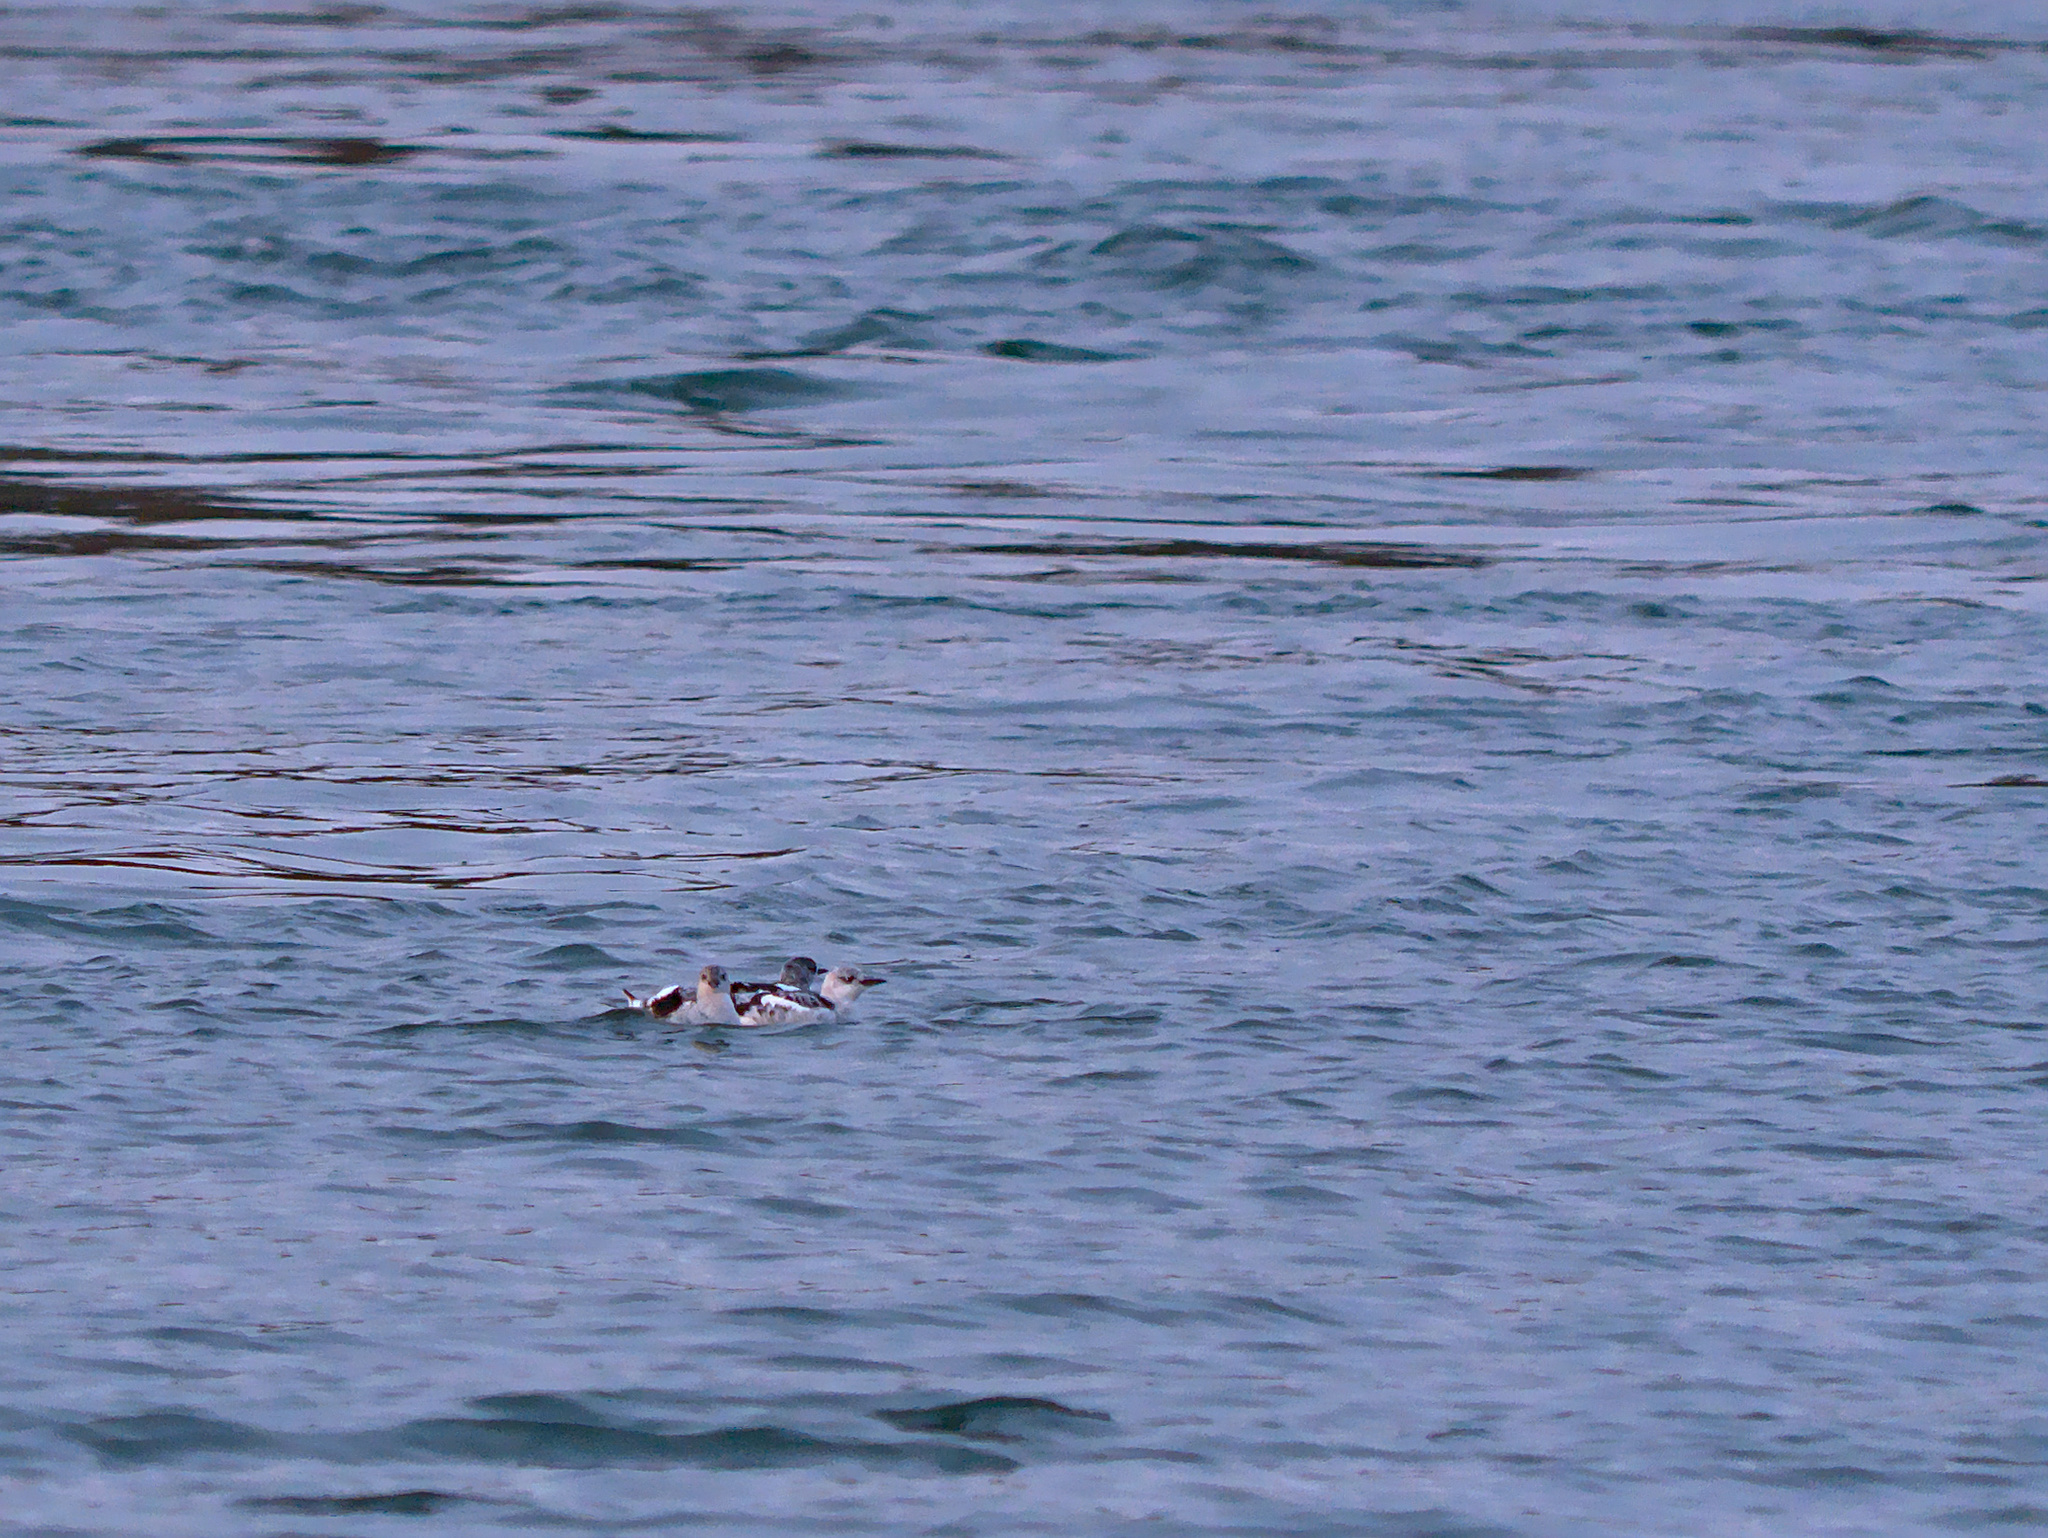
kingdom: Animalia
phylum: Chordata
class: Aves
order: Charadriiformes
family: Alcidae
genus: Cepphus
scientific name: Cepphus grylle
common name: Black guillemot
